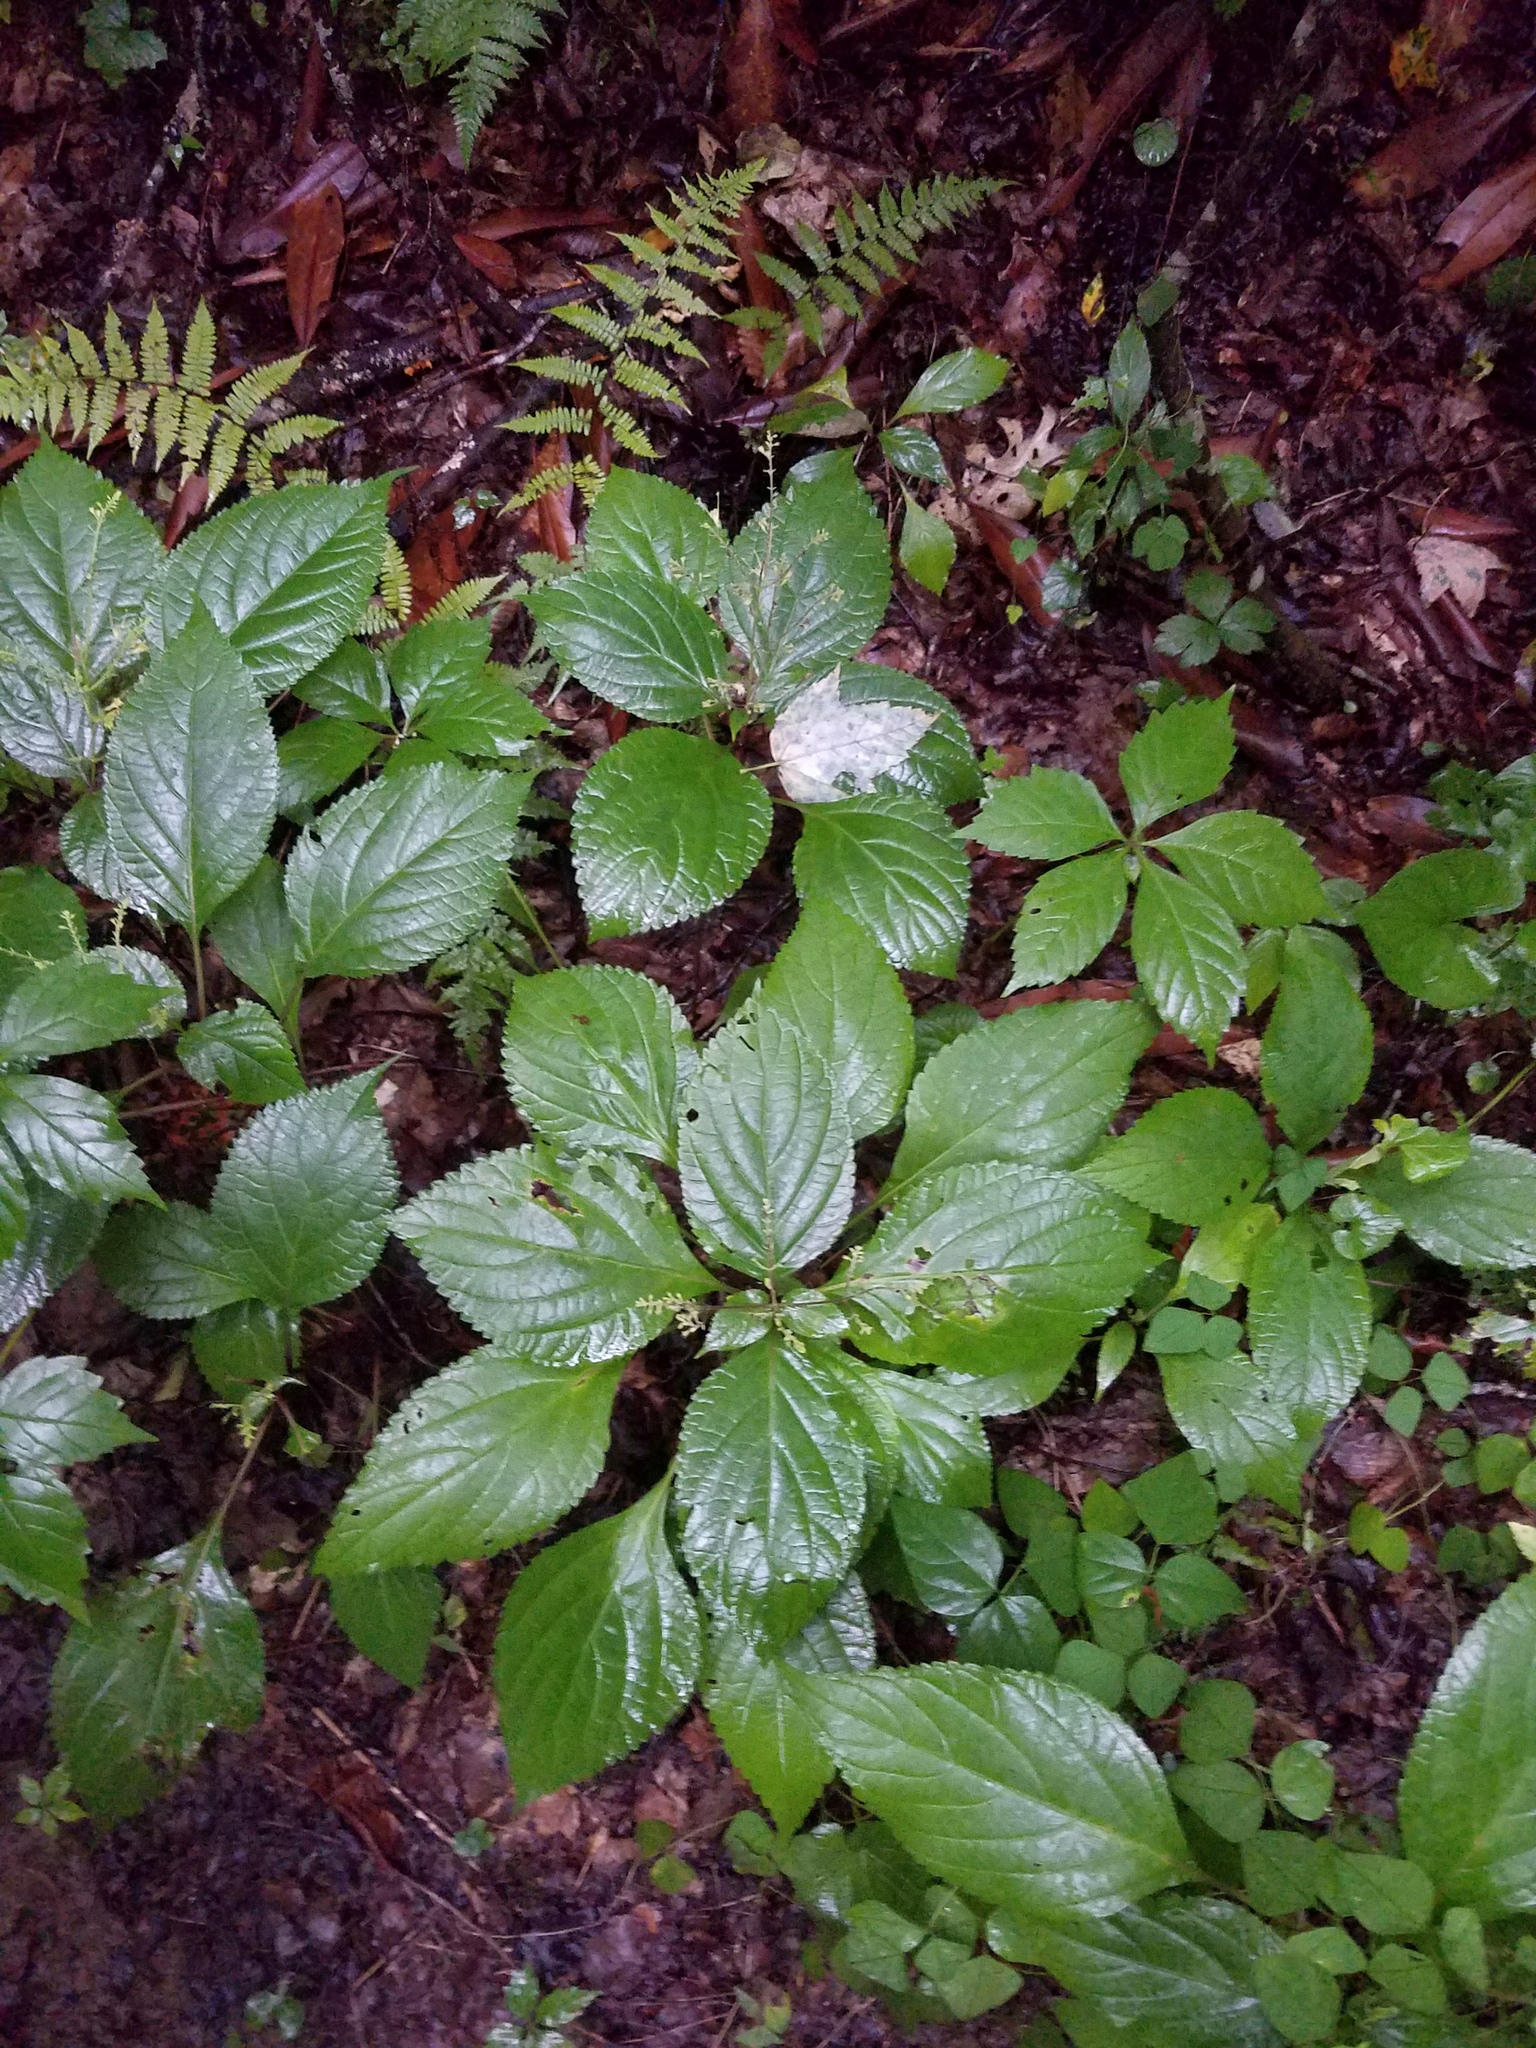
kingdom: Plantae
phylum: Tracheophyta
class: Magnoliopsida
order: Lamiales
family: Lamiaceae
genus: Collinsonia
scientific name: Collinsonia canadensis
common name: Northern horsebalm
